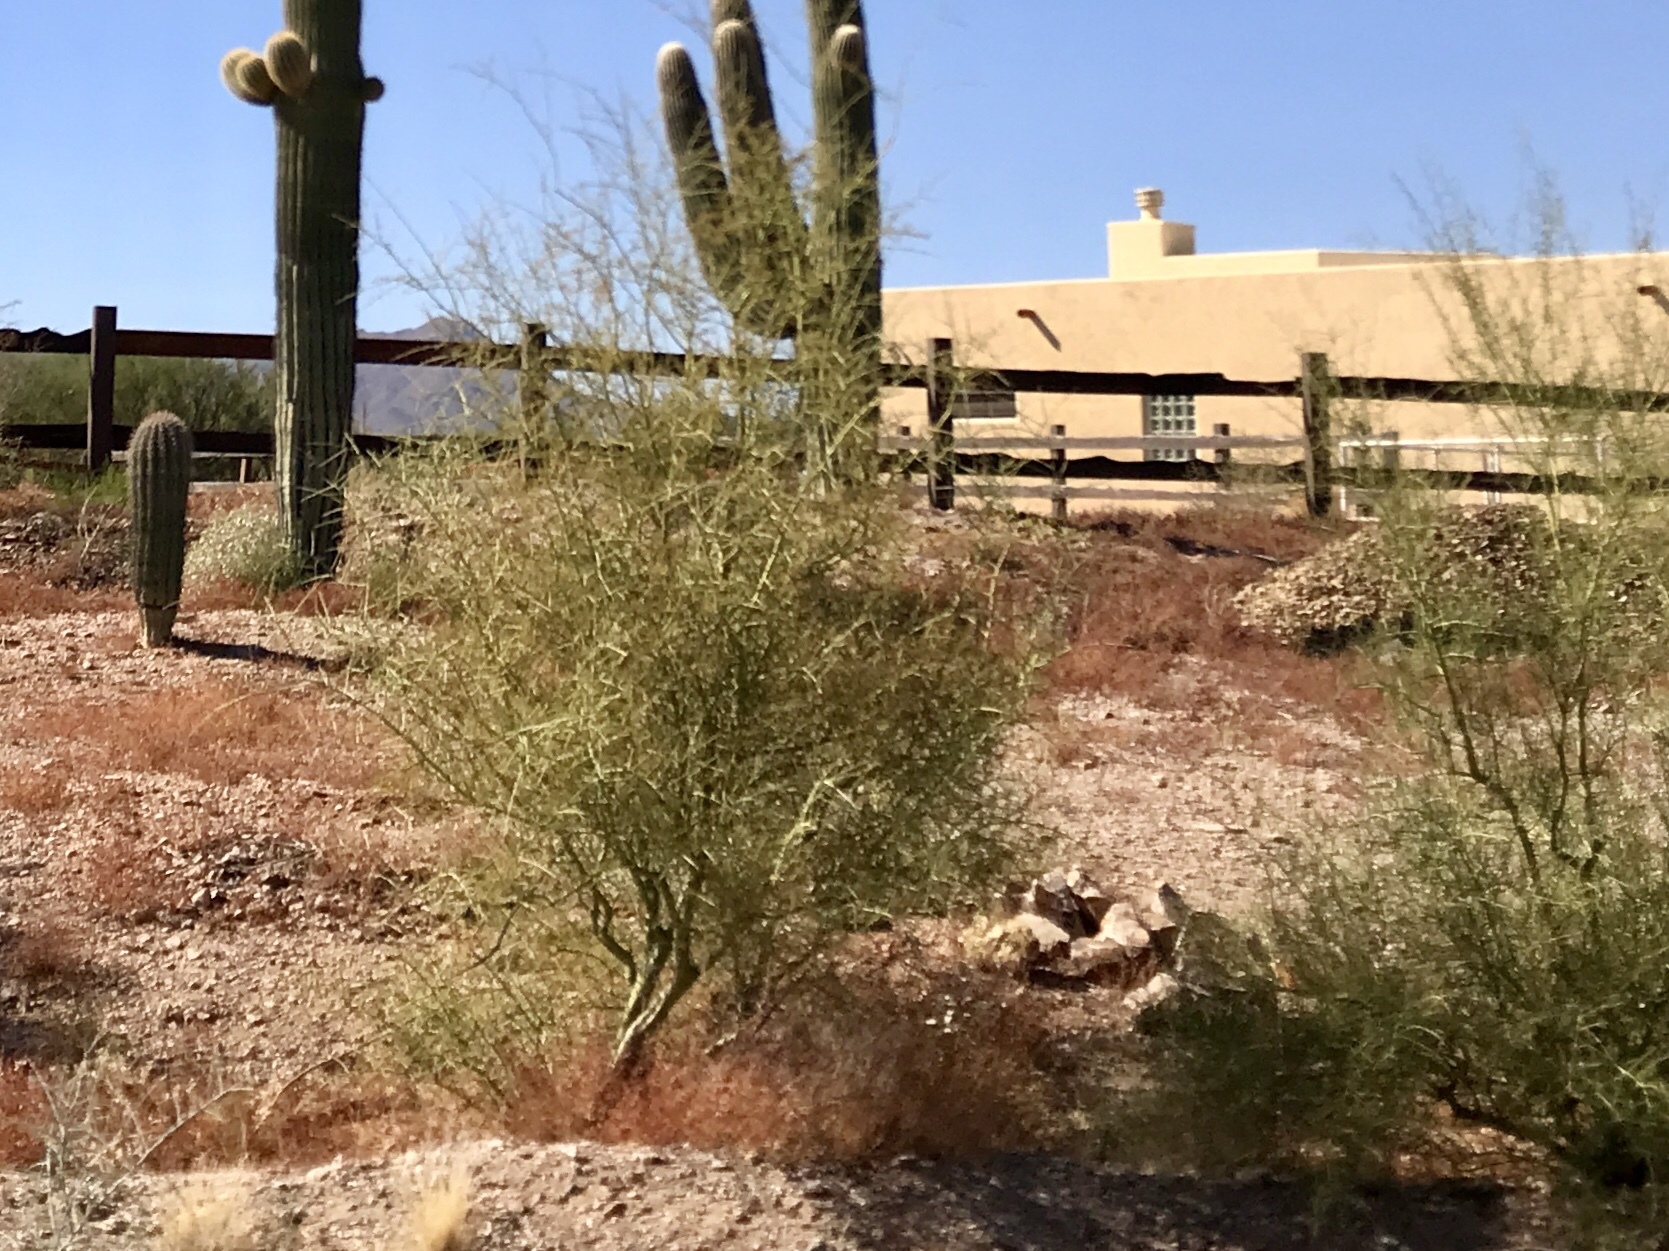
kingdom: Plantae
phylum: Tracheophyta
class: Magnoliopsida
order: Fabales
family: Fabaceae
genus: Parkinsonia
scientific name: Parkinsonia microphylla
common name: Yellow paloverde
